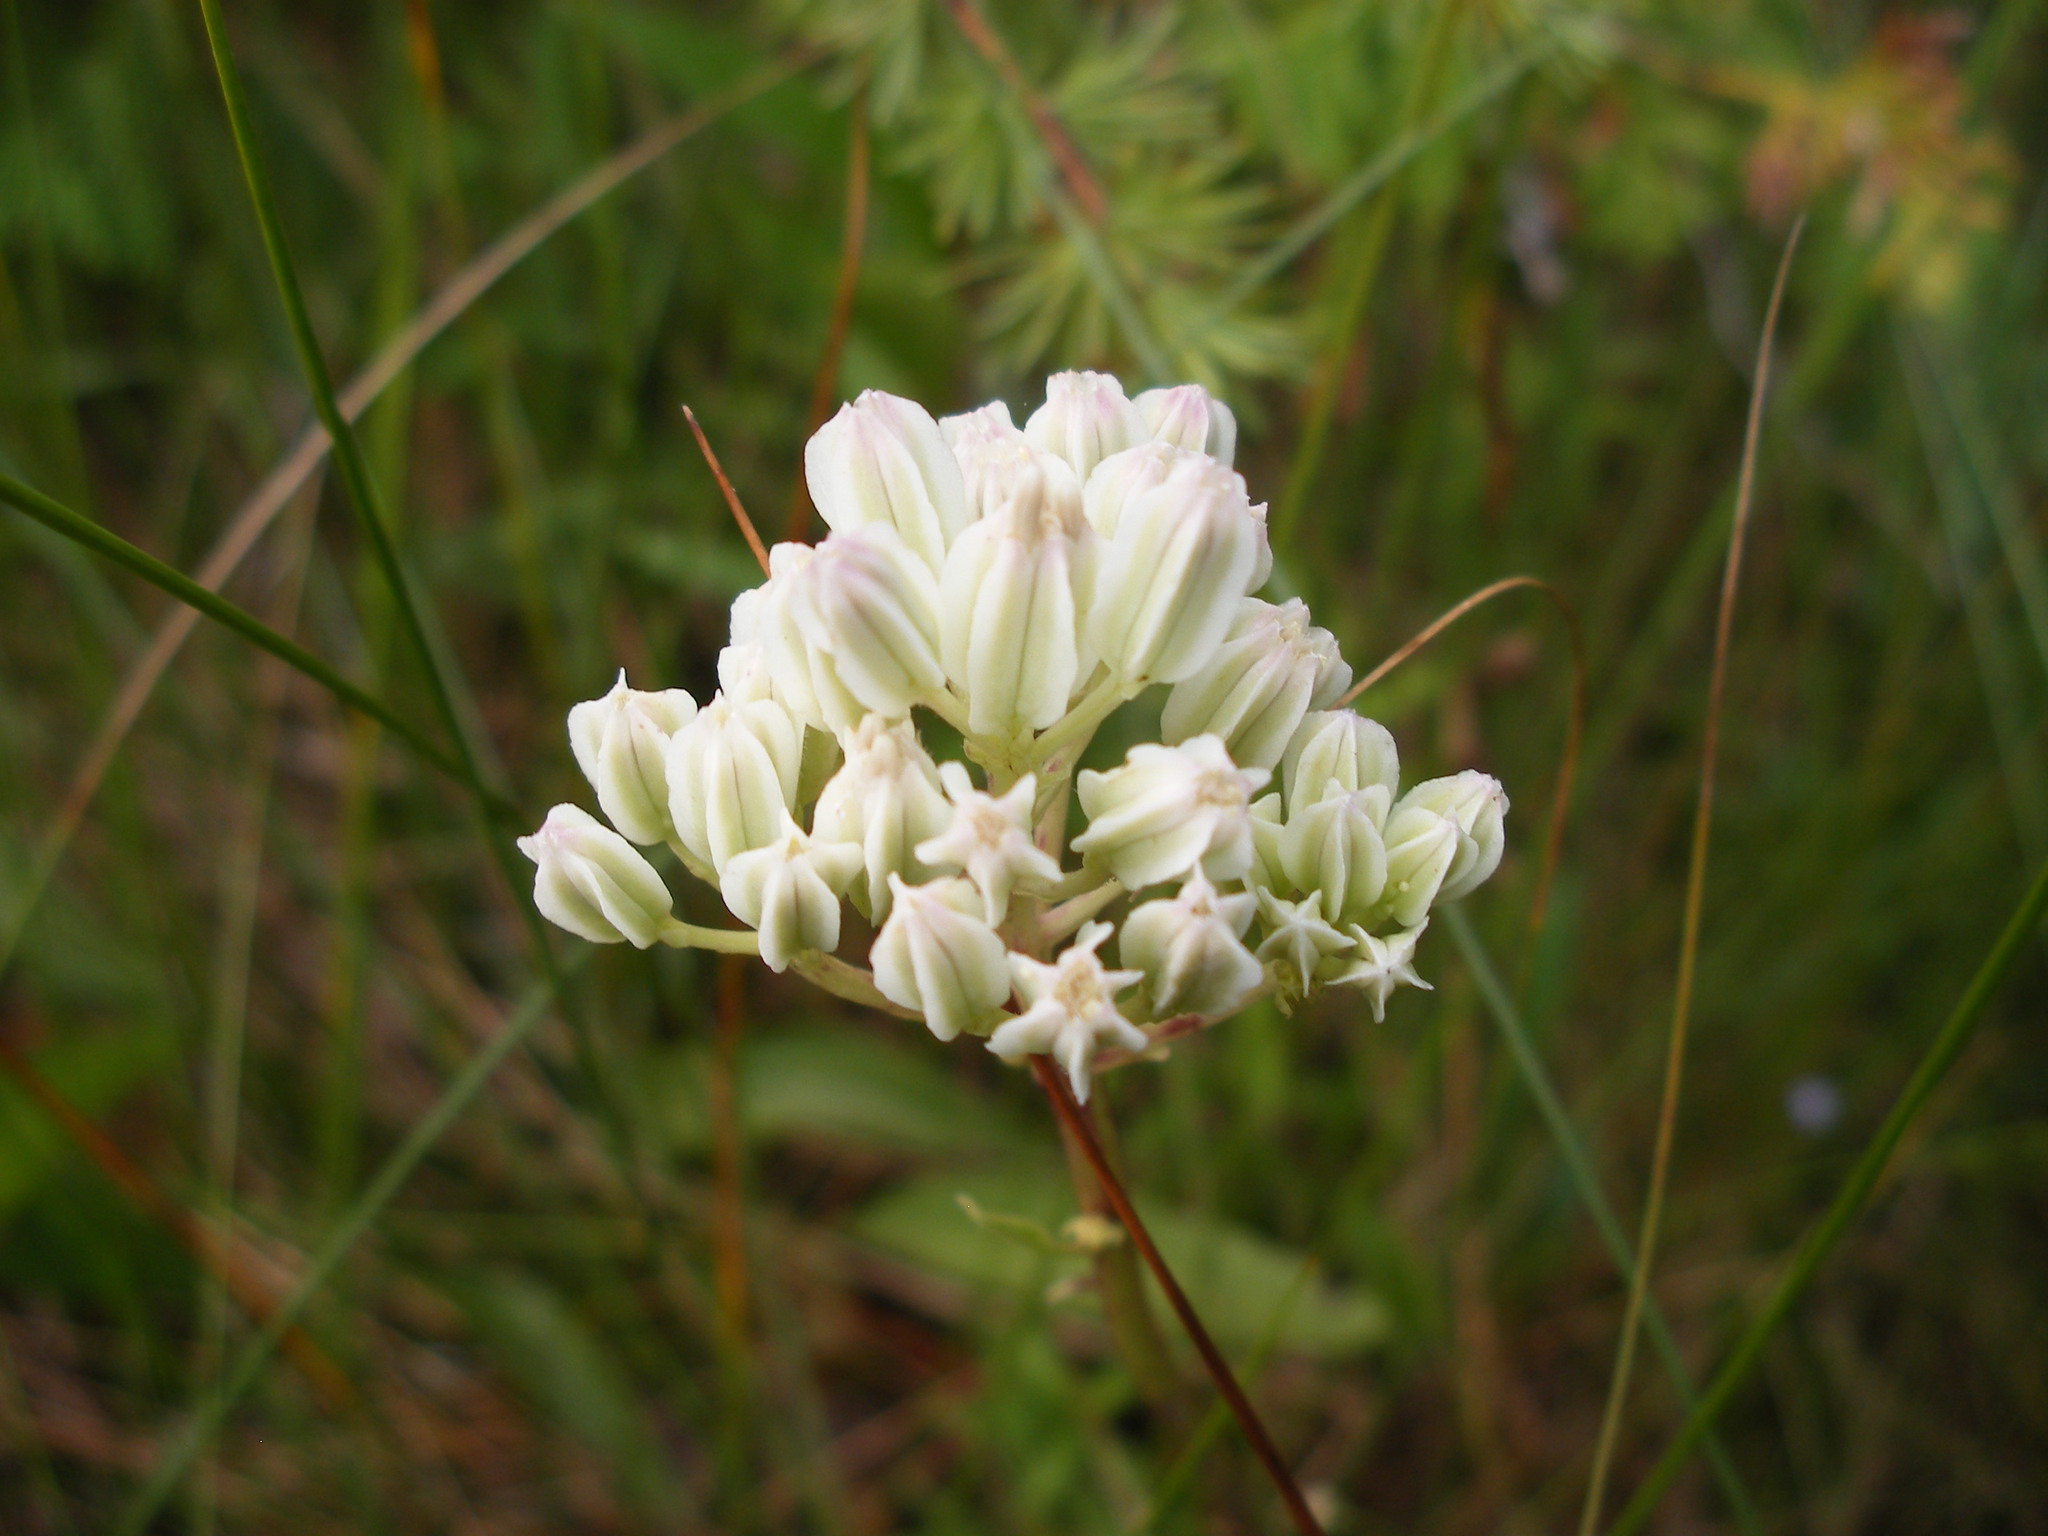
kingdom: Plantae
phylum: Tracheophyta
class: Magnoliopsida
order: Asterales
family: Asteraceae
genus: Arnoglossum
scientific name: Arnoglossum plantagineum
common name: Groove-stemmed indian-plantain
